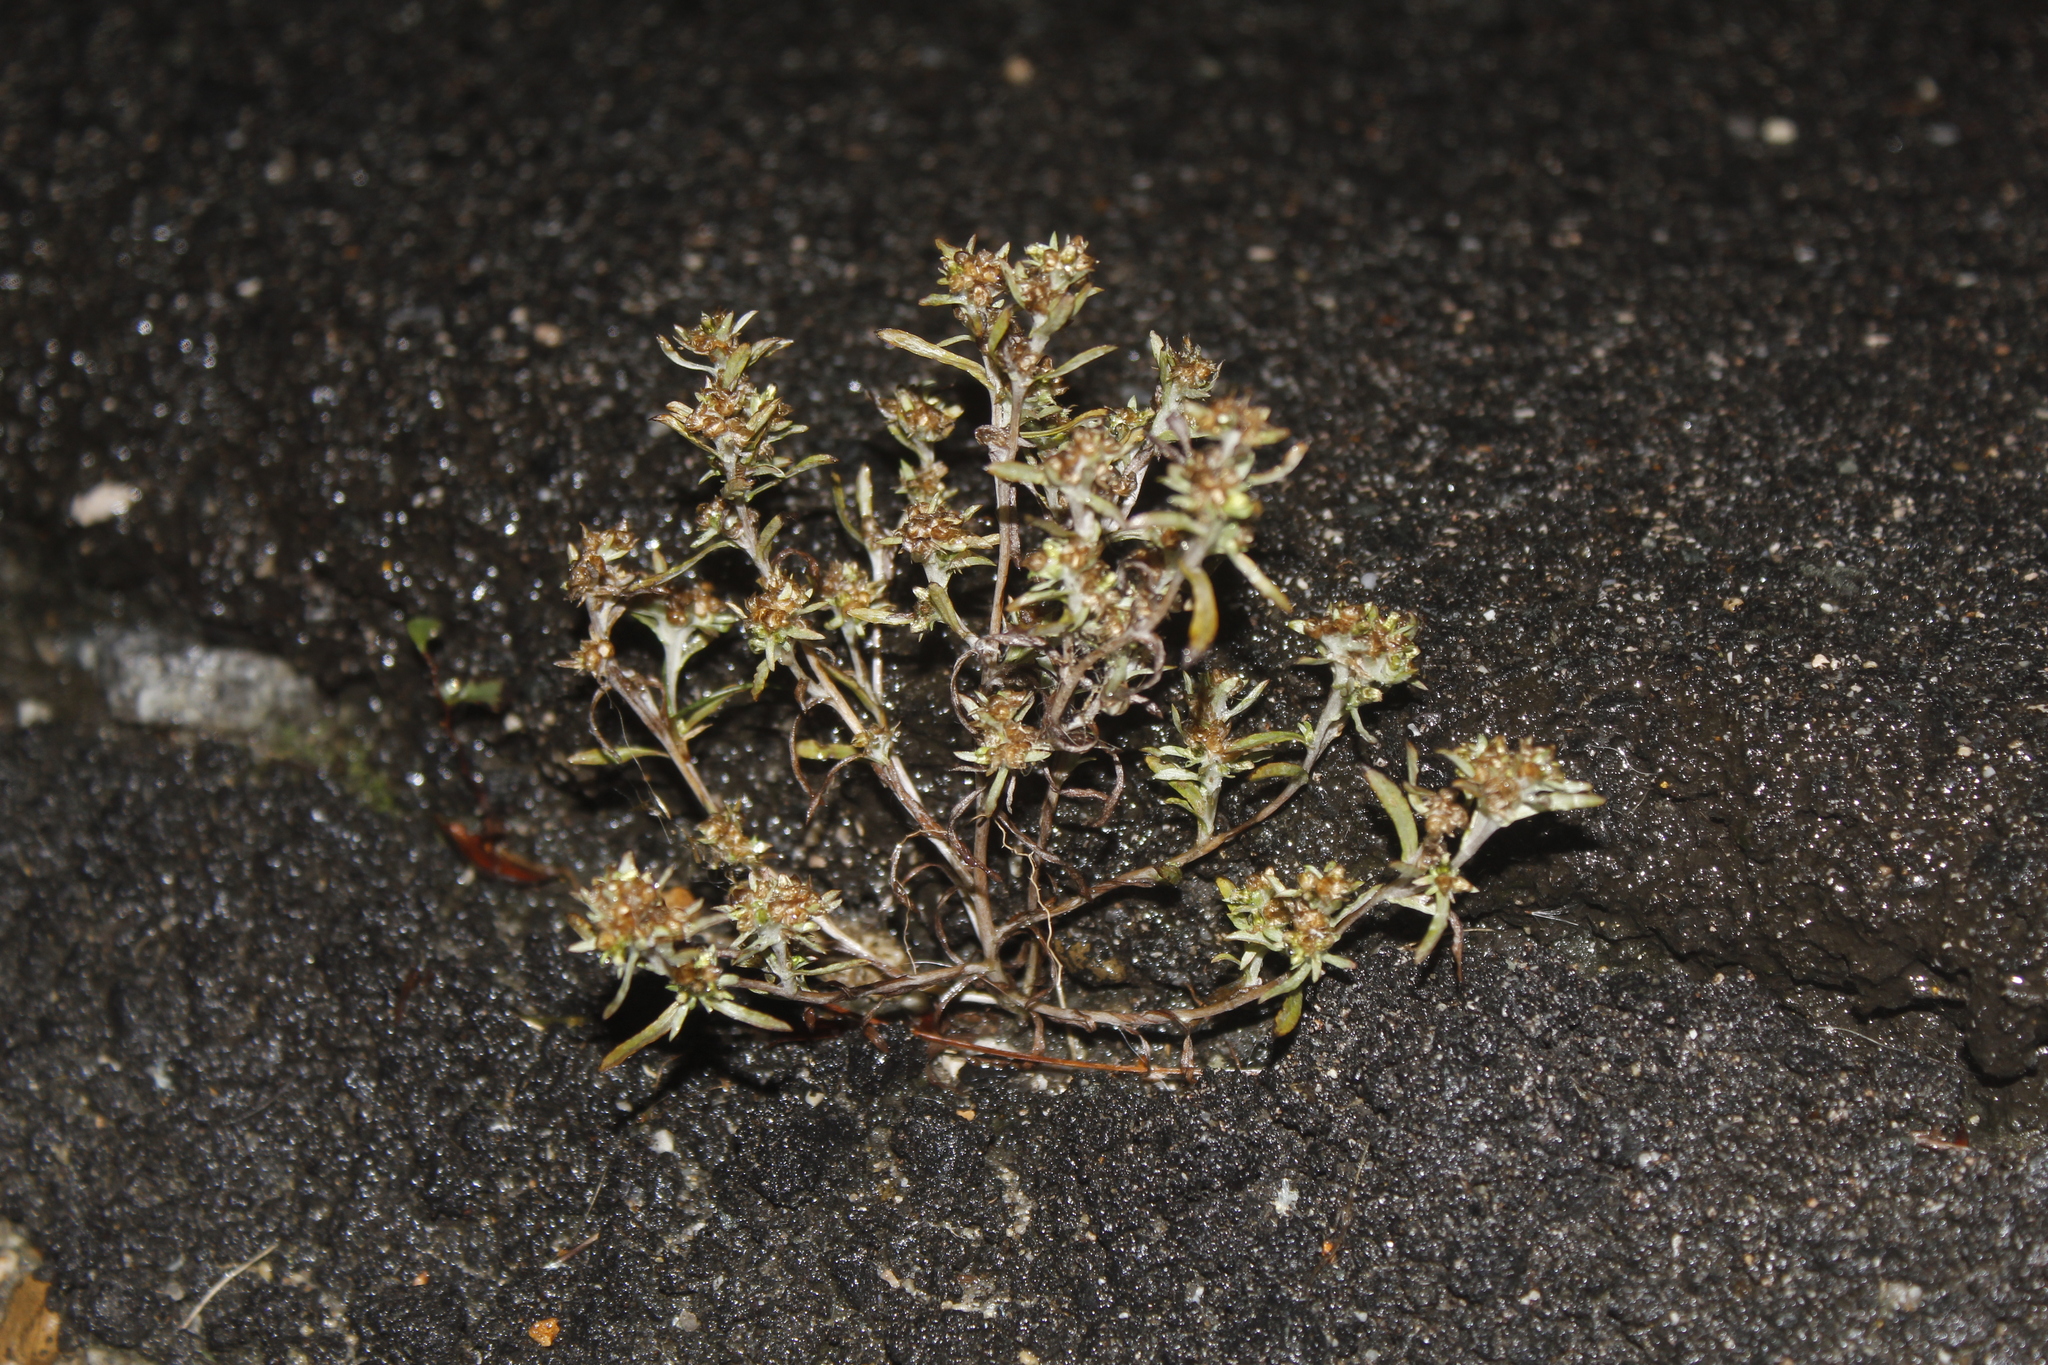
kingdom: Plantae
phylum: Tracheophyta
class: Magnoliopsida
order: Asterales
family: Asteraceae
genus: Gnaphalium
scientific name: Gnaphalium uliginosum
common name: Marsh cudweed
